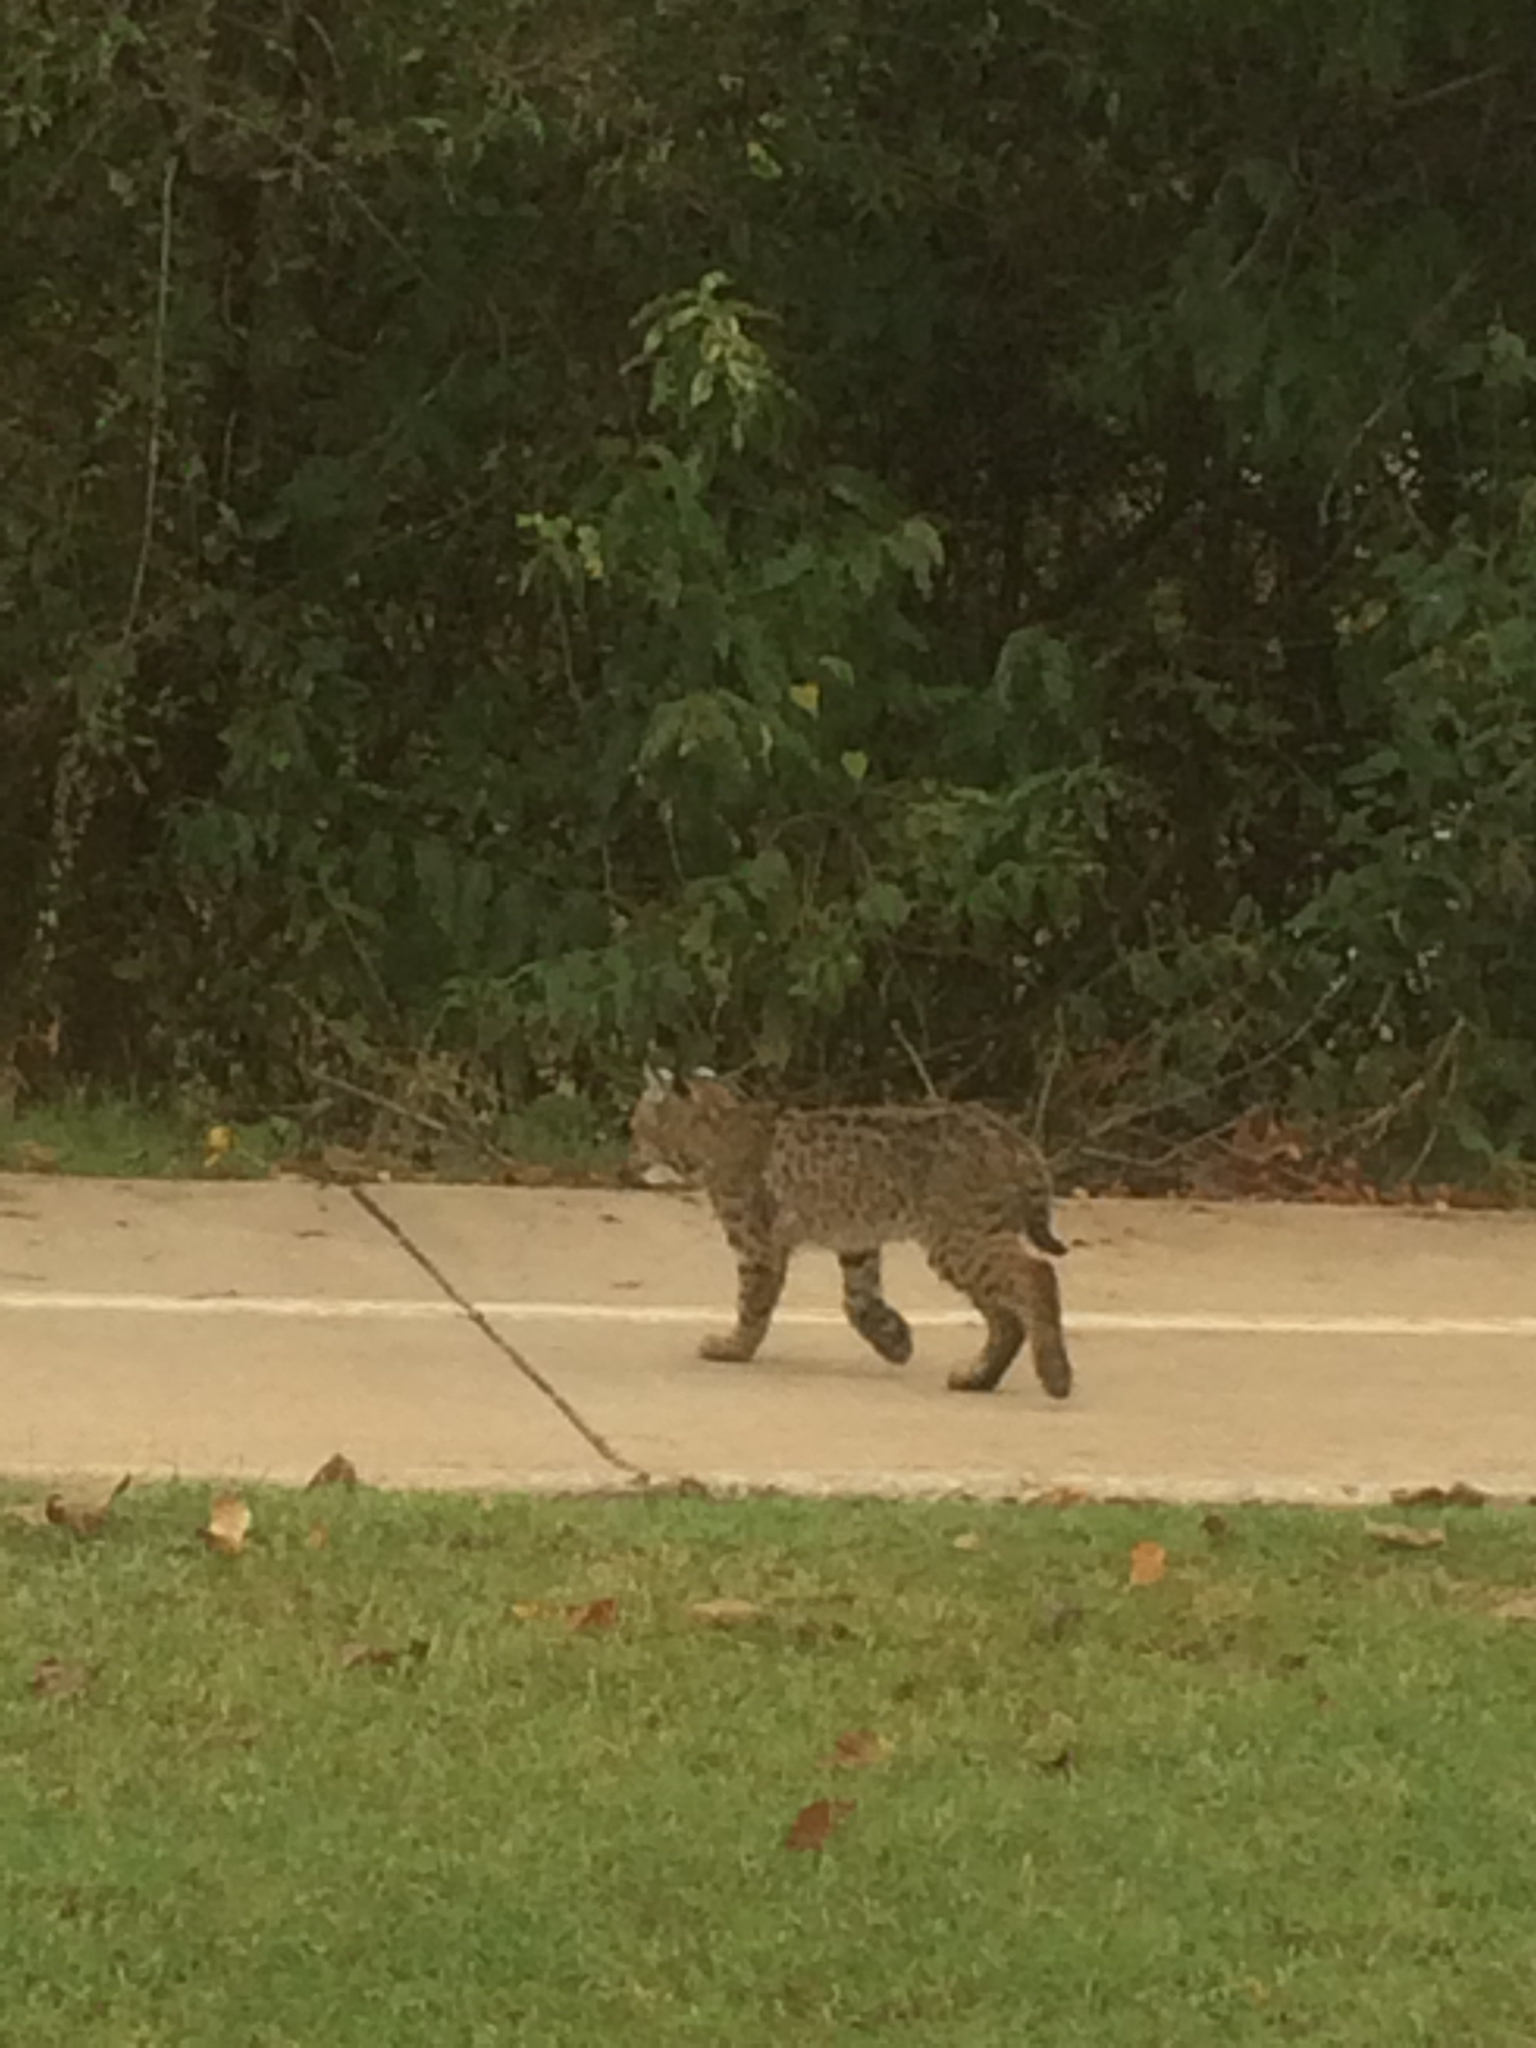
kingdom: Animalia
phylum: Chordata
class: Mammalia
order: Carnivora
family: Felidae
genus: Lynx
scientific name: Lynx rufus
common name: Bobcat
